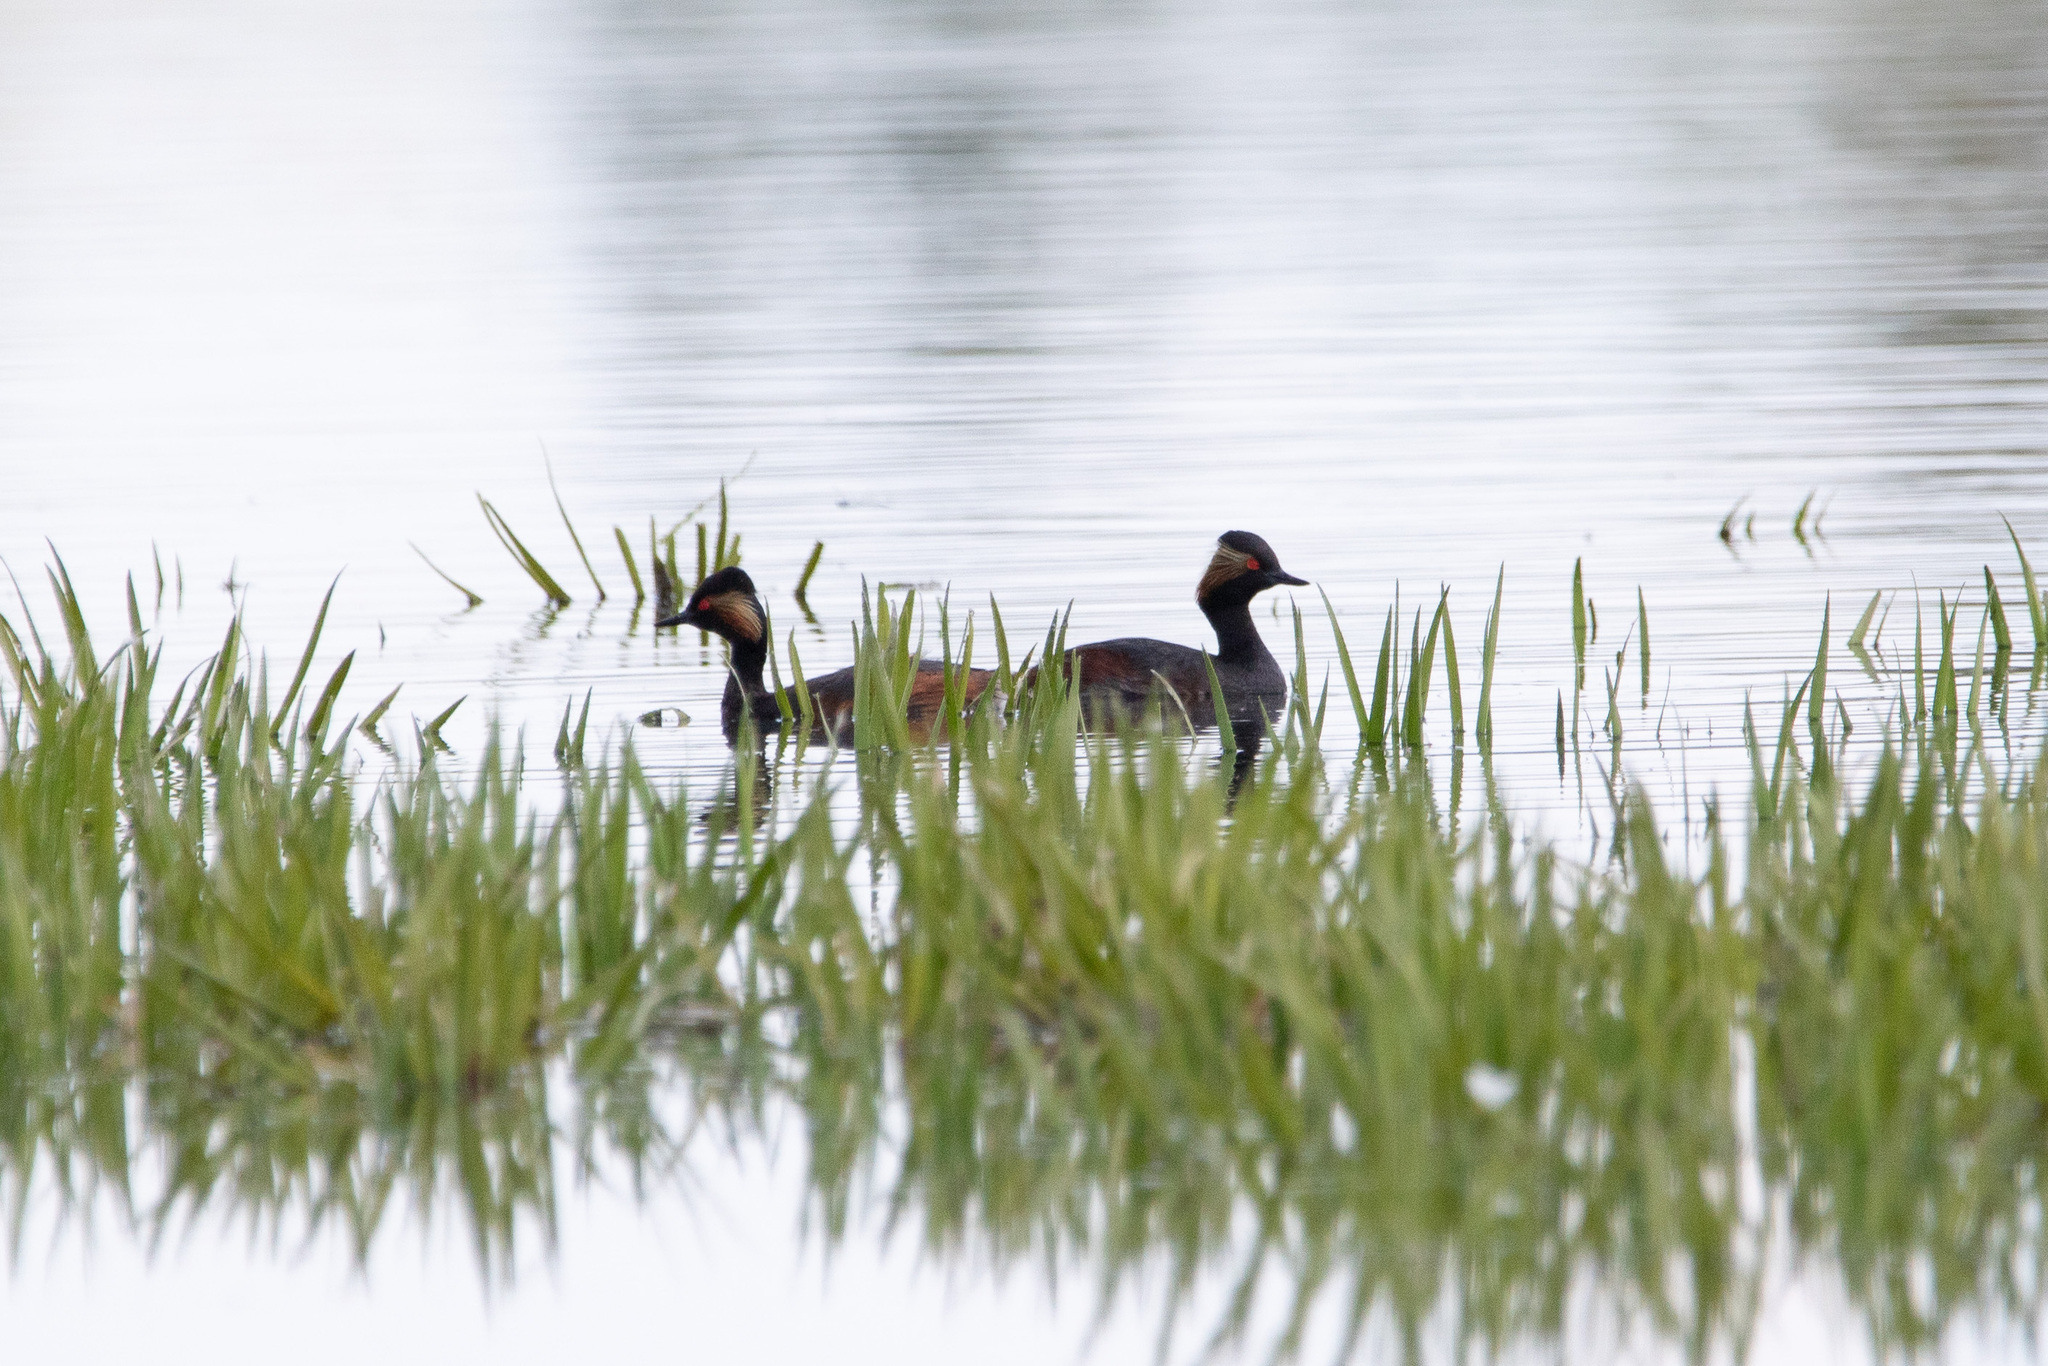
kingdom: Animalia
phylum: Chordata
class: Aves
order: Podicipediformes
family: Podicipedidae
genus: Podiceps
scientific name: Podiceps nigricollis
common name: Black-necked grebe
